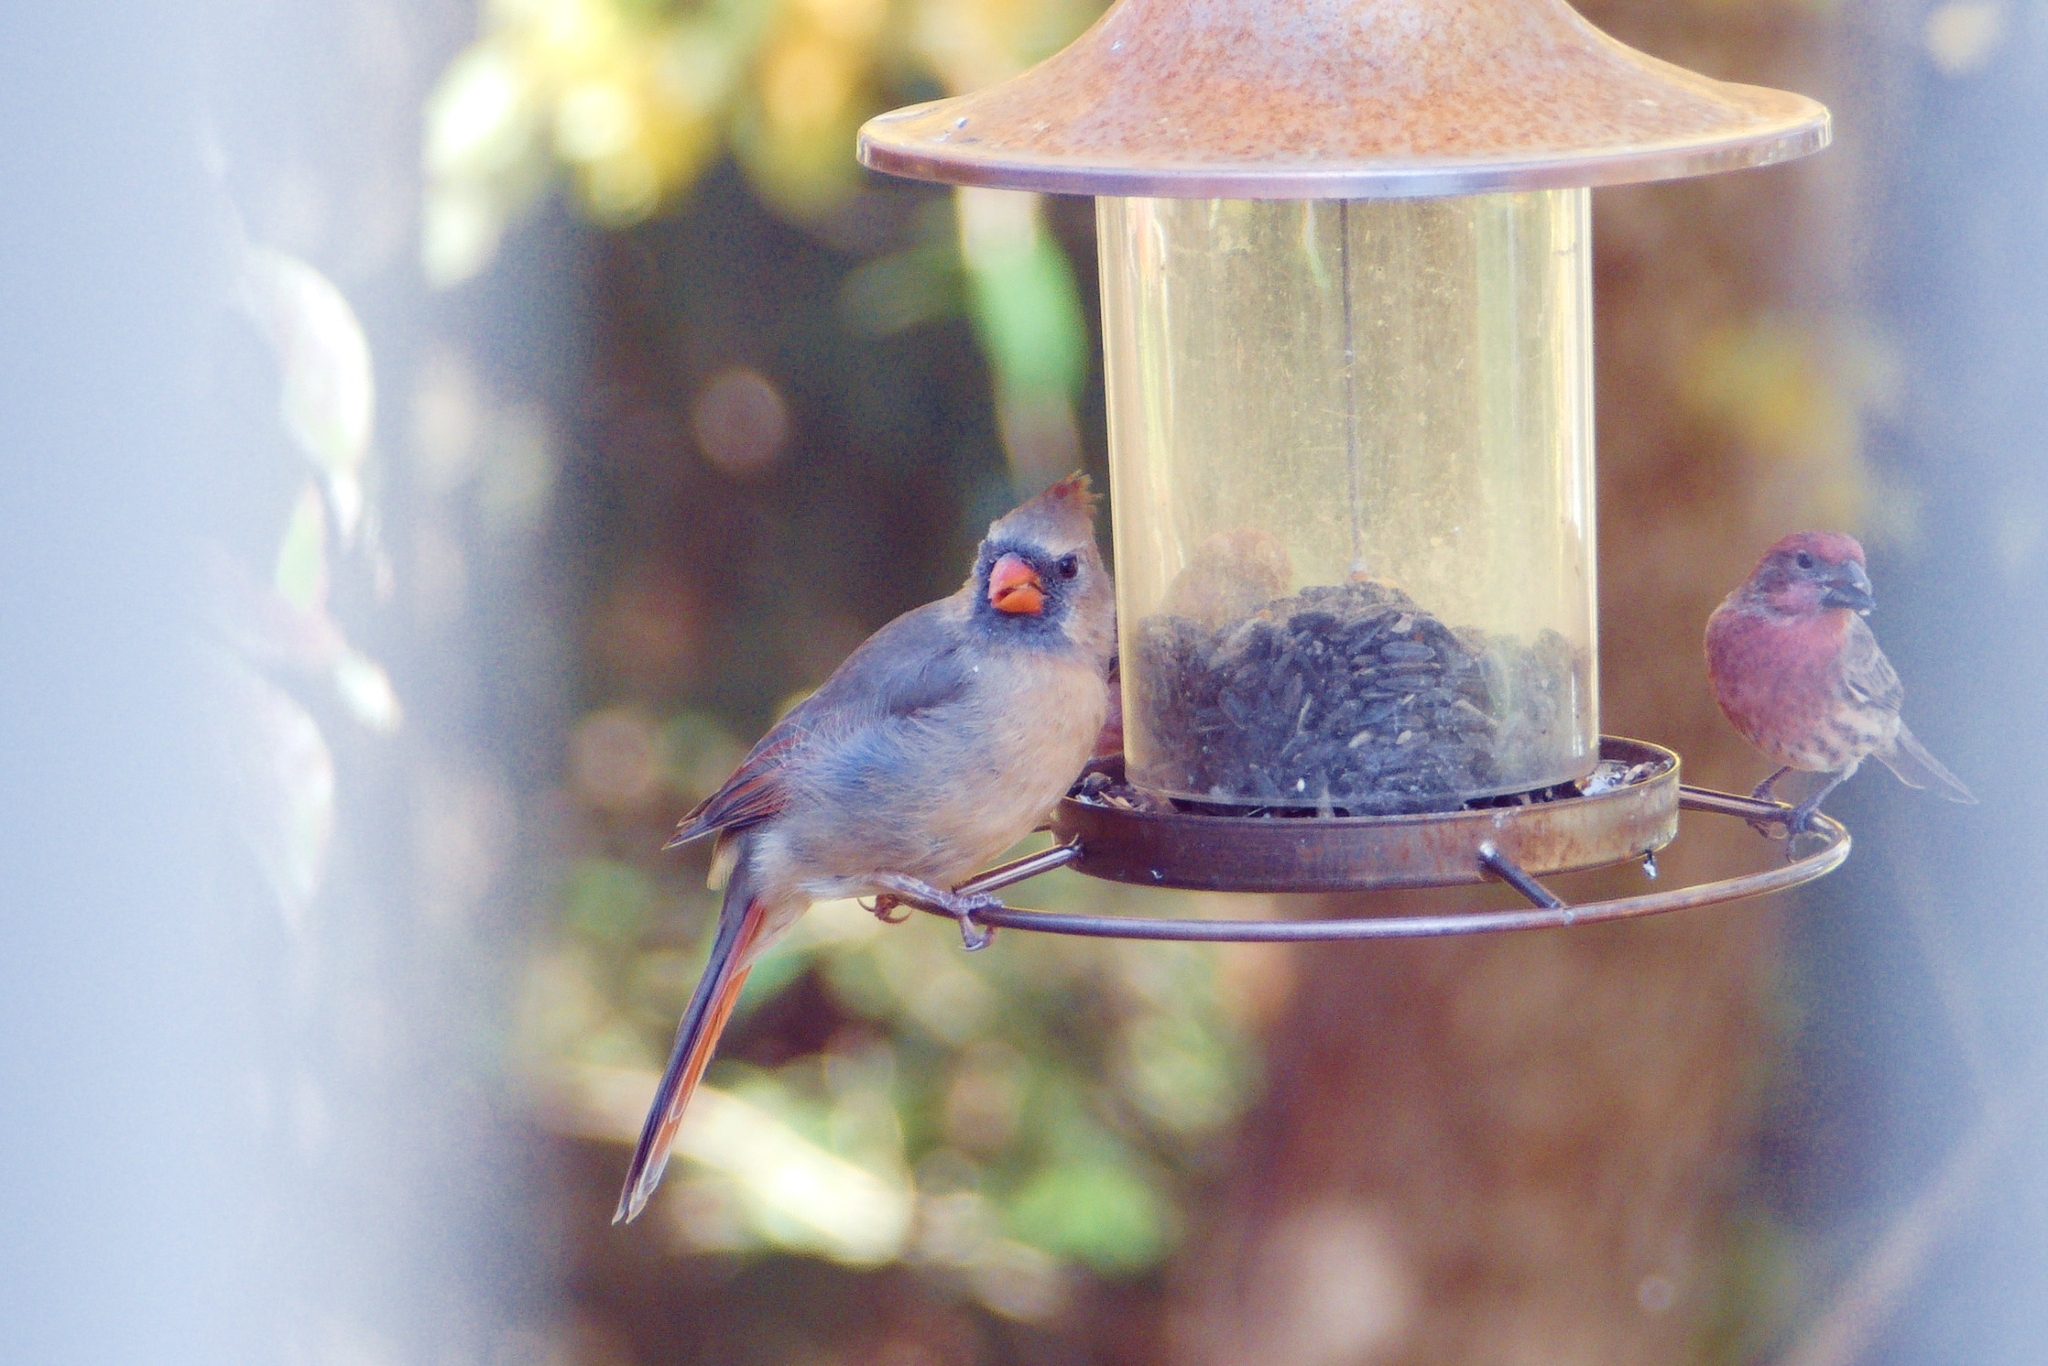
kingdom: Animalia
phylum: Chordata
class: Aves
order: Passeriformes
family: Cardinalidae
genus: Cardinalis
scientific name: Cardinalis cardinalis
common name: Northern cardinal
